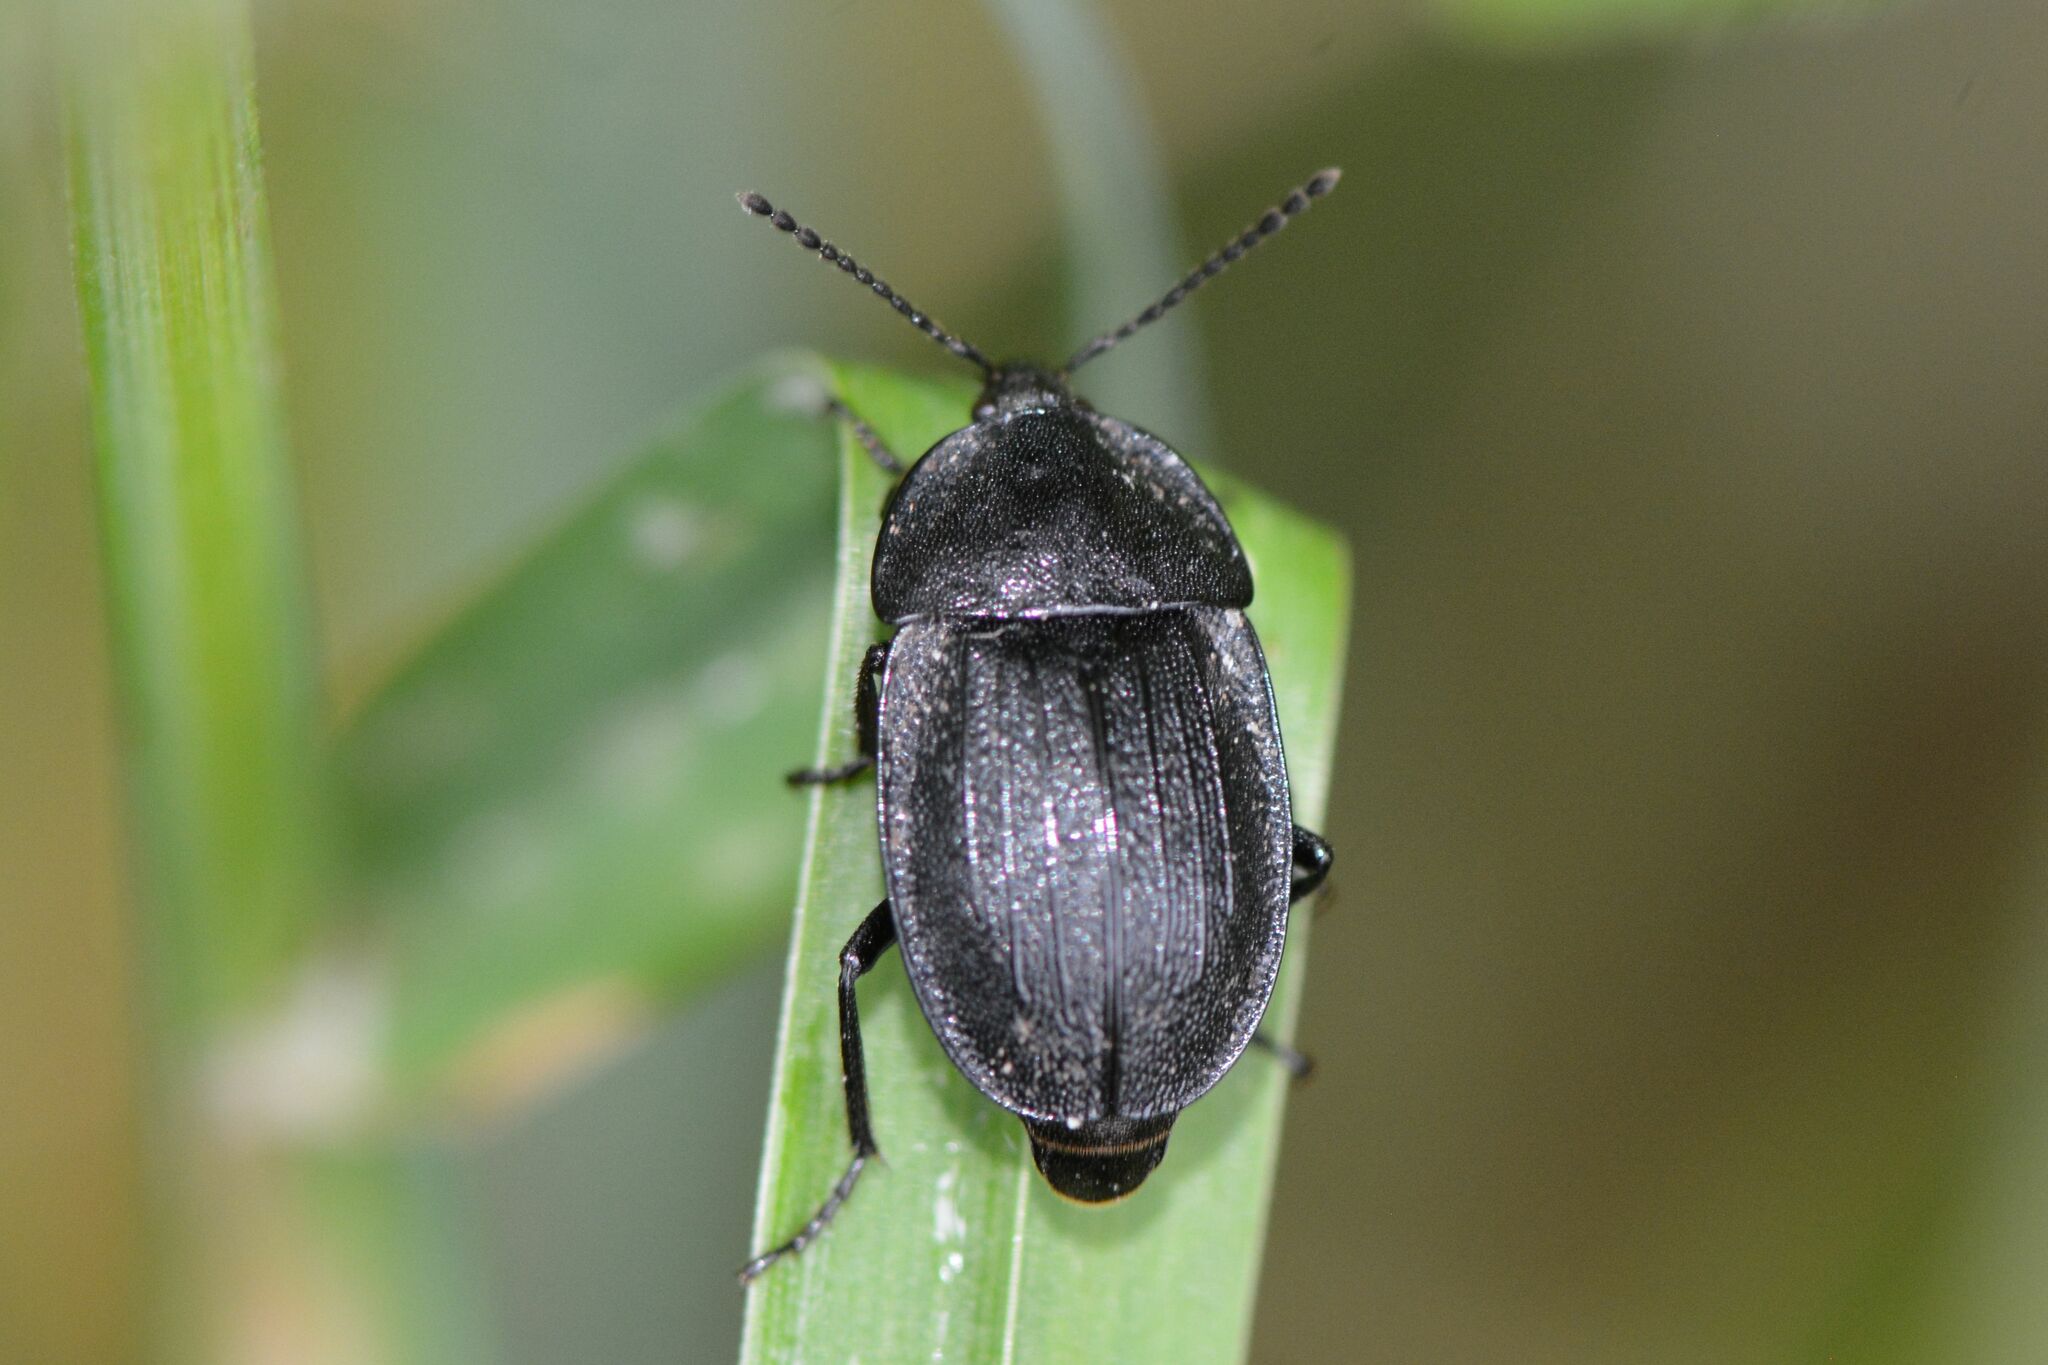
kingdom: Animalia
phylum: Arthropoda
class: Insecta
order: Coleoptera
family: Staphylinidae
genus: Silpha
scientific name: Silpha atrata
